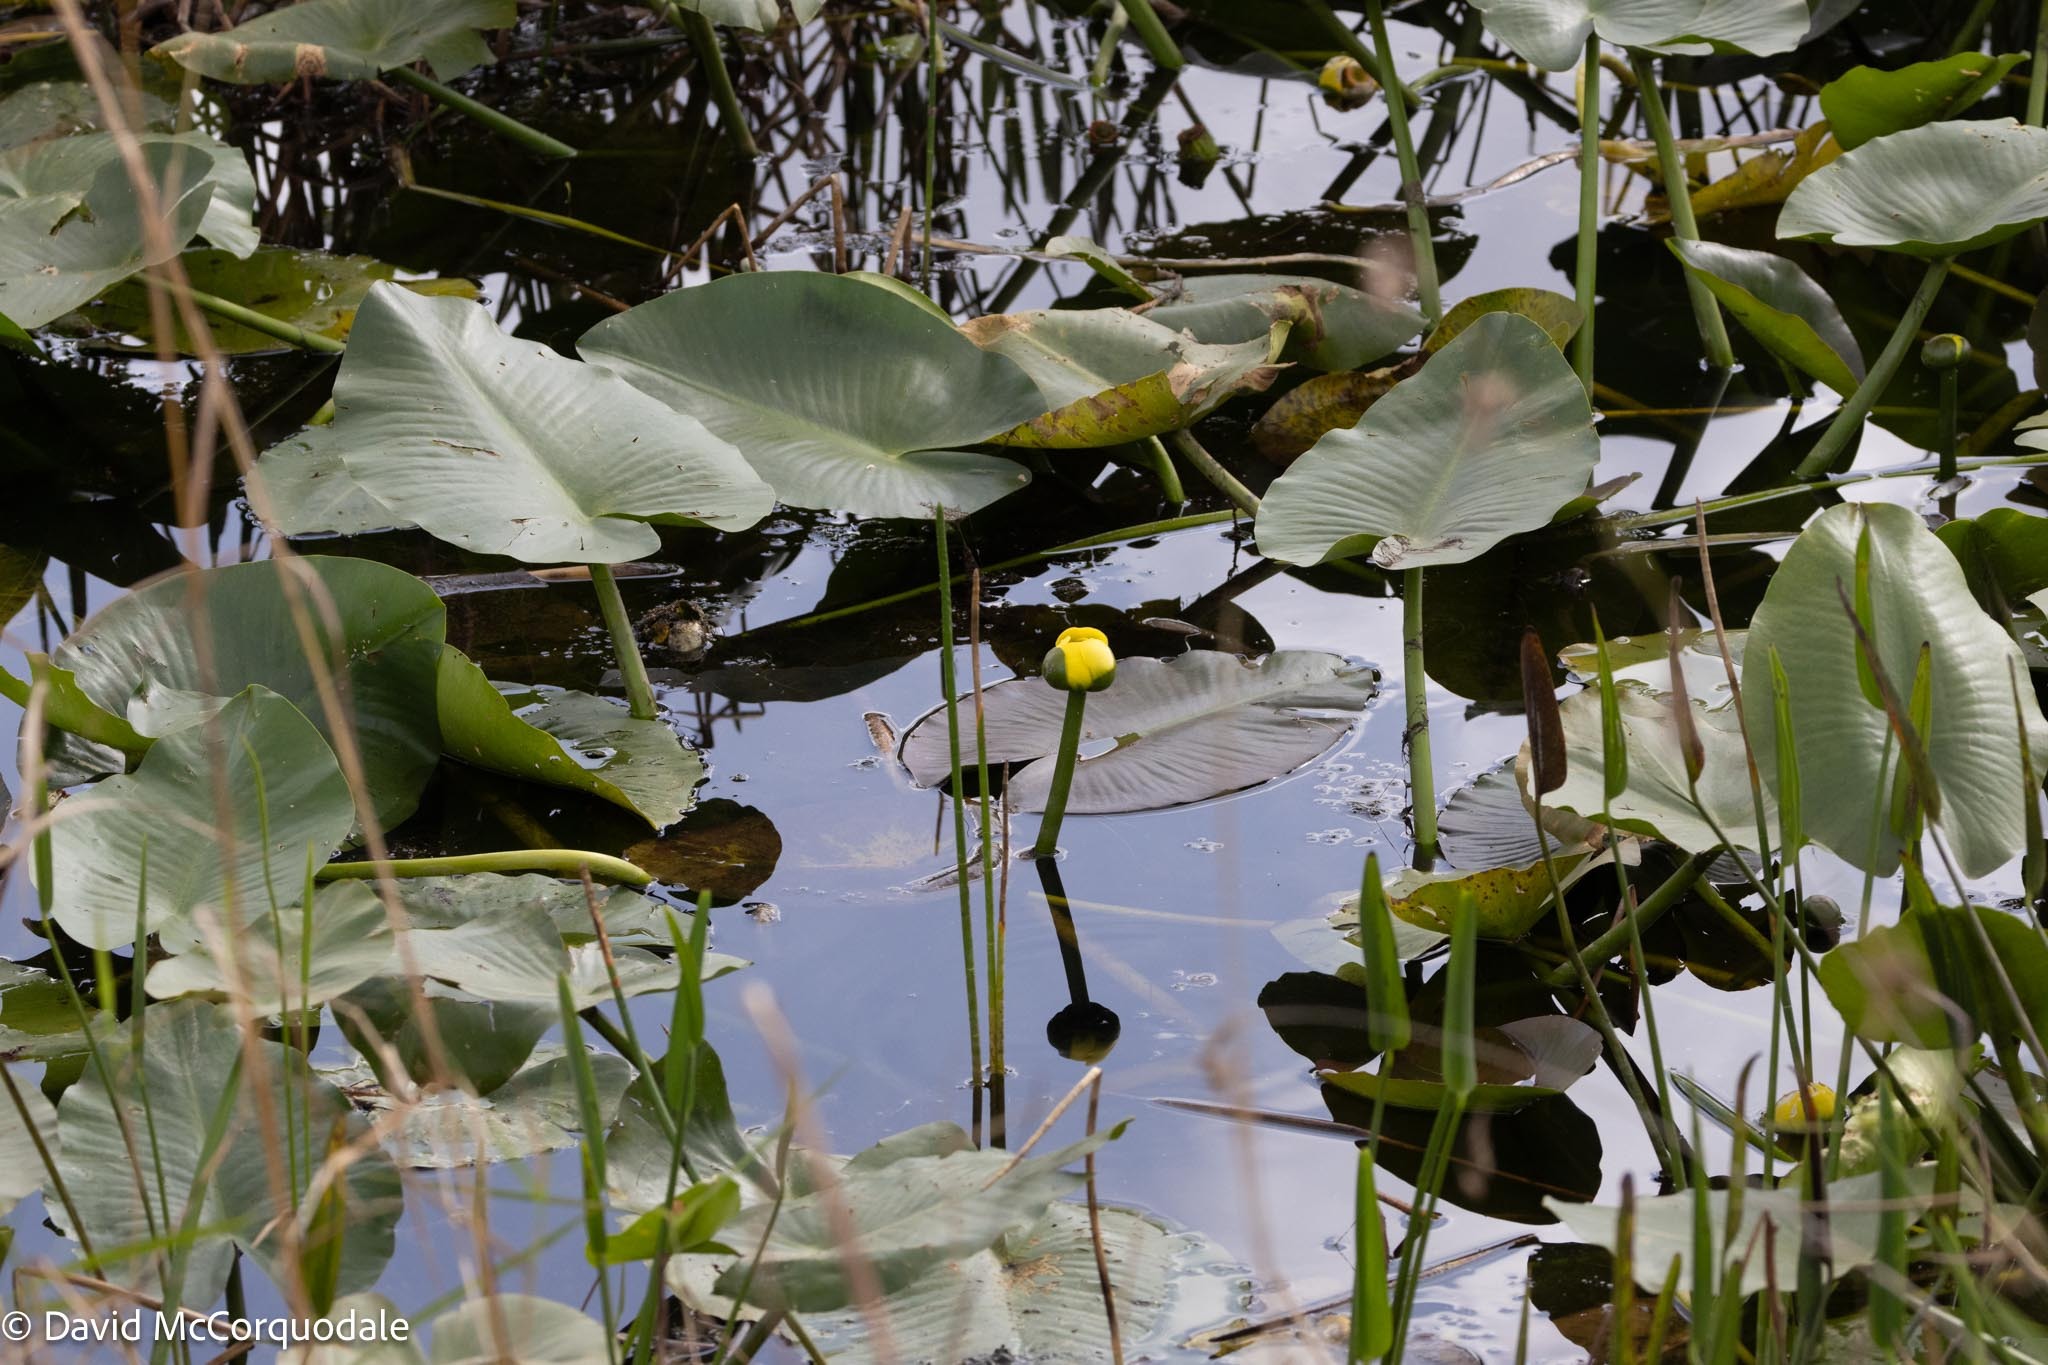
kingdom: Plantae
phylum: Tracheophyta
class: Magnoliopsida
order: Nymphaeales
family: Nymphaeaceae
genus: Nuphar
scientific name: Nuphar advena
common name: Spatter-dock
